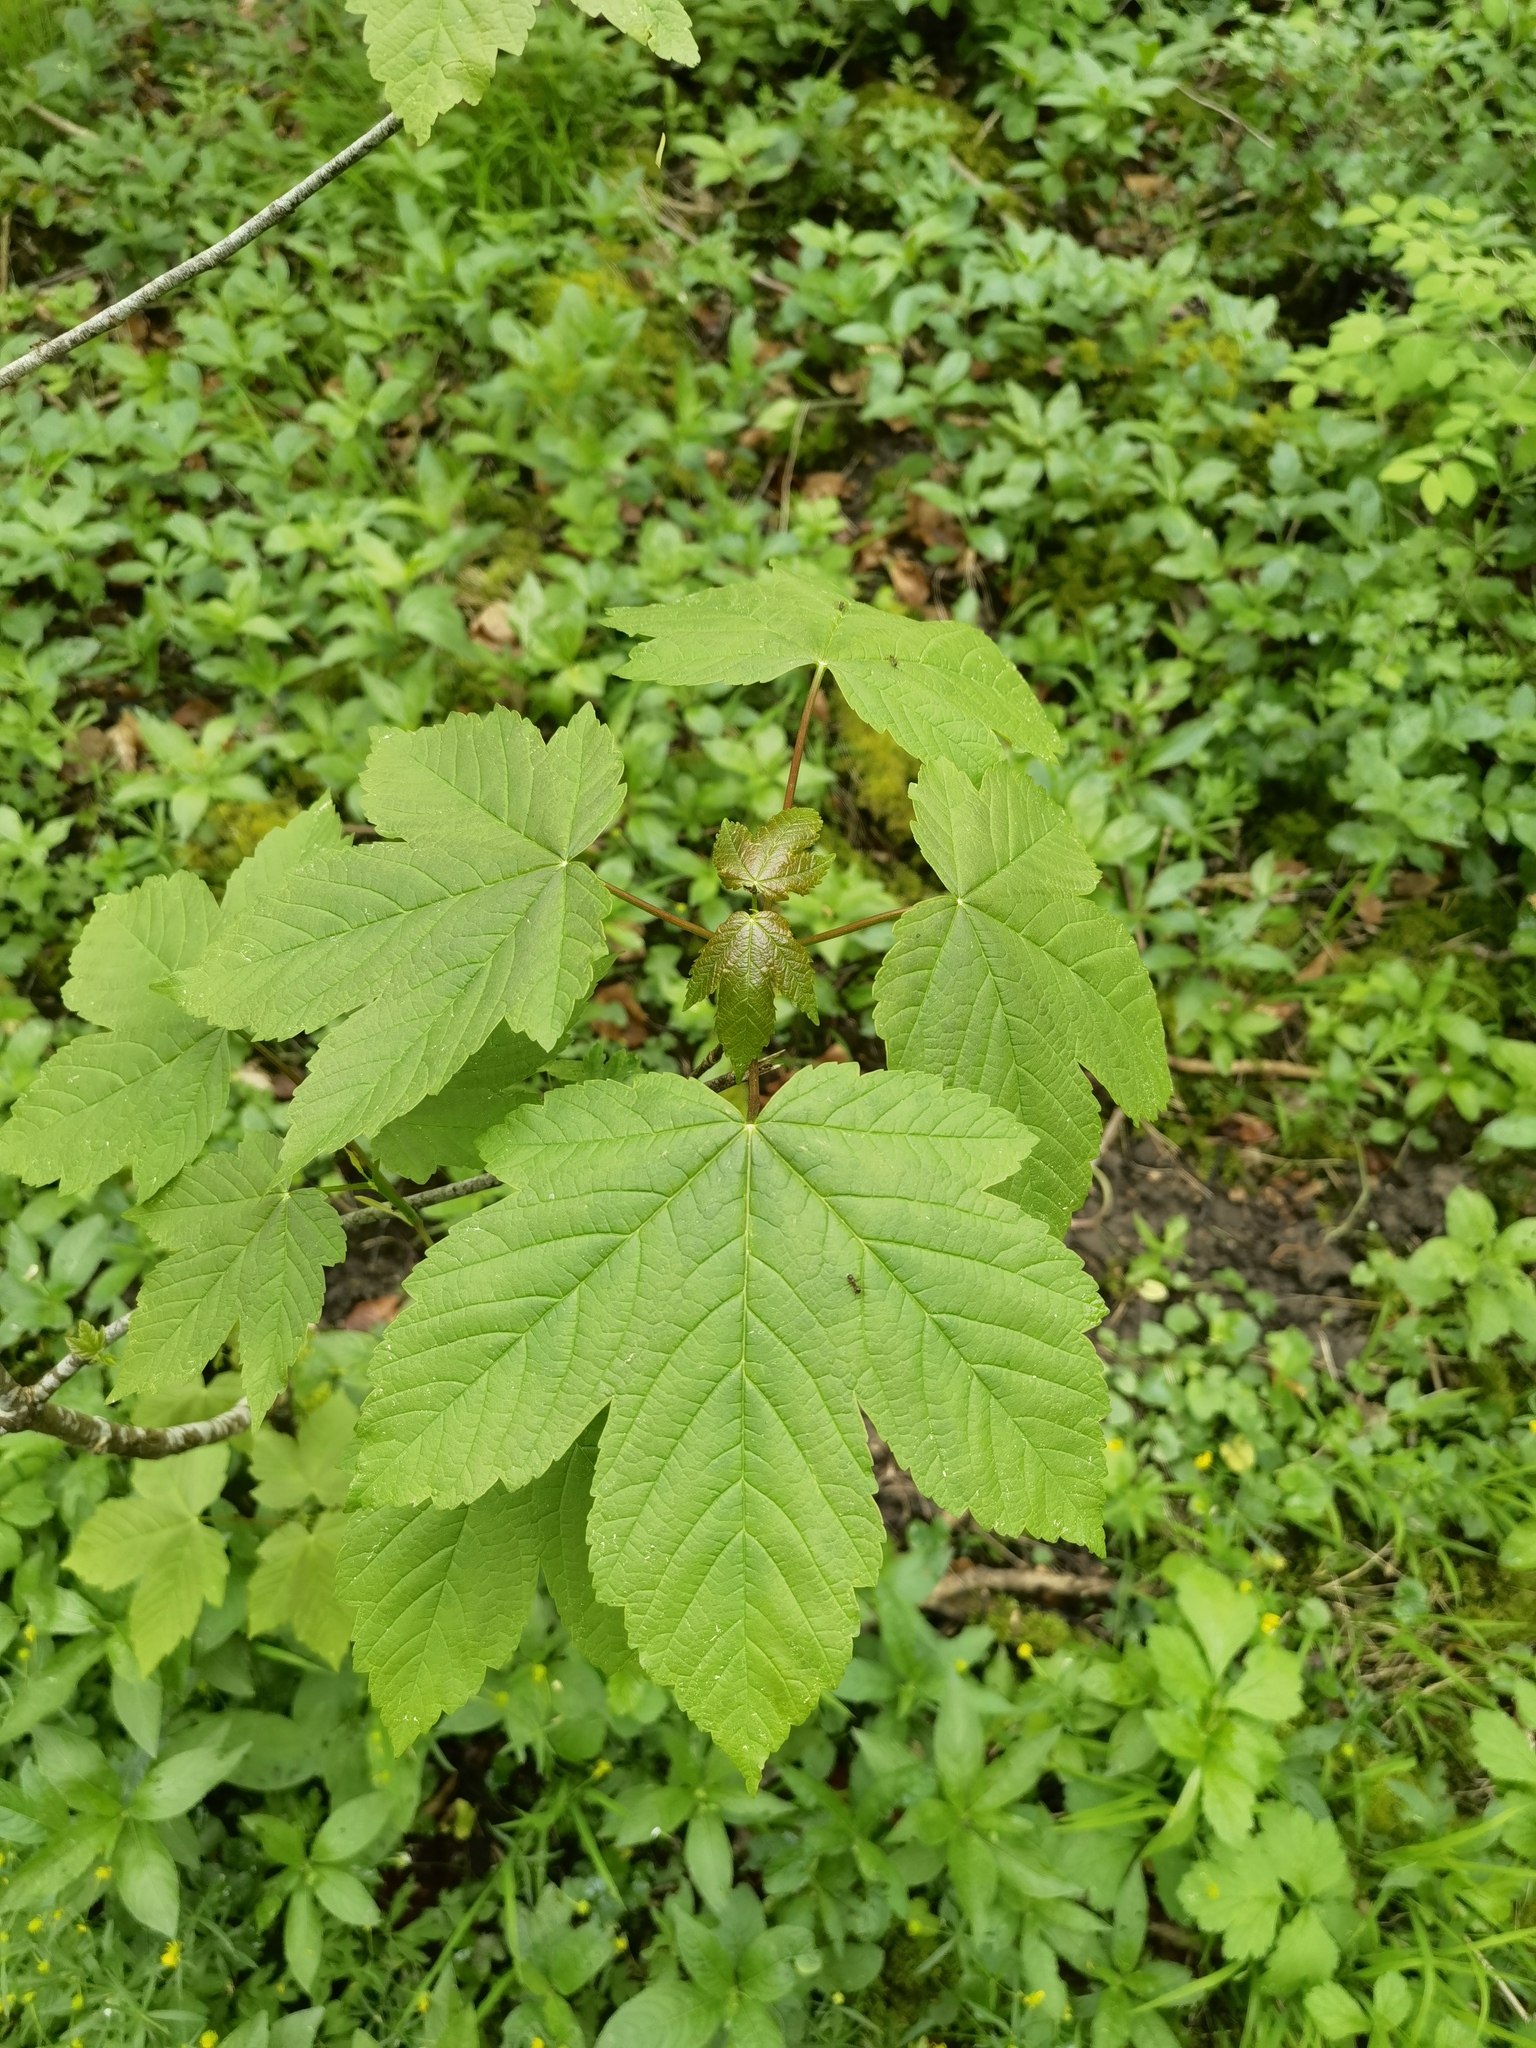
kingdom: Plantae
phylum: Tracheophyta
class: Magnoliopsida
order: Sapindales
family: Sapindaceae
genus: Acer
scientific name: Acer pseudoplatanus
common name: Sycamore
